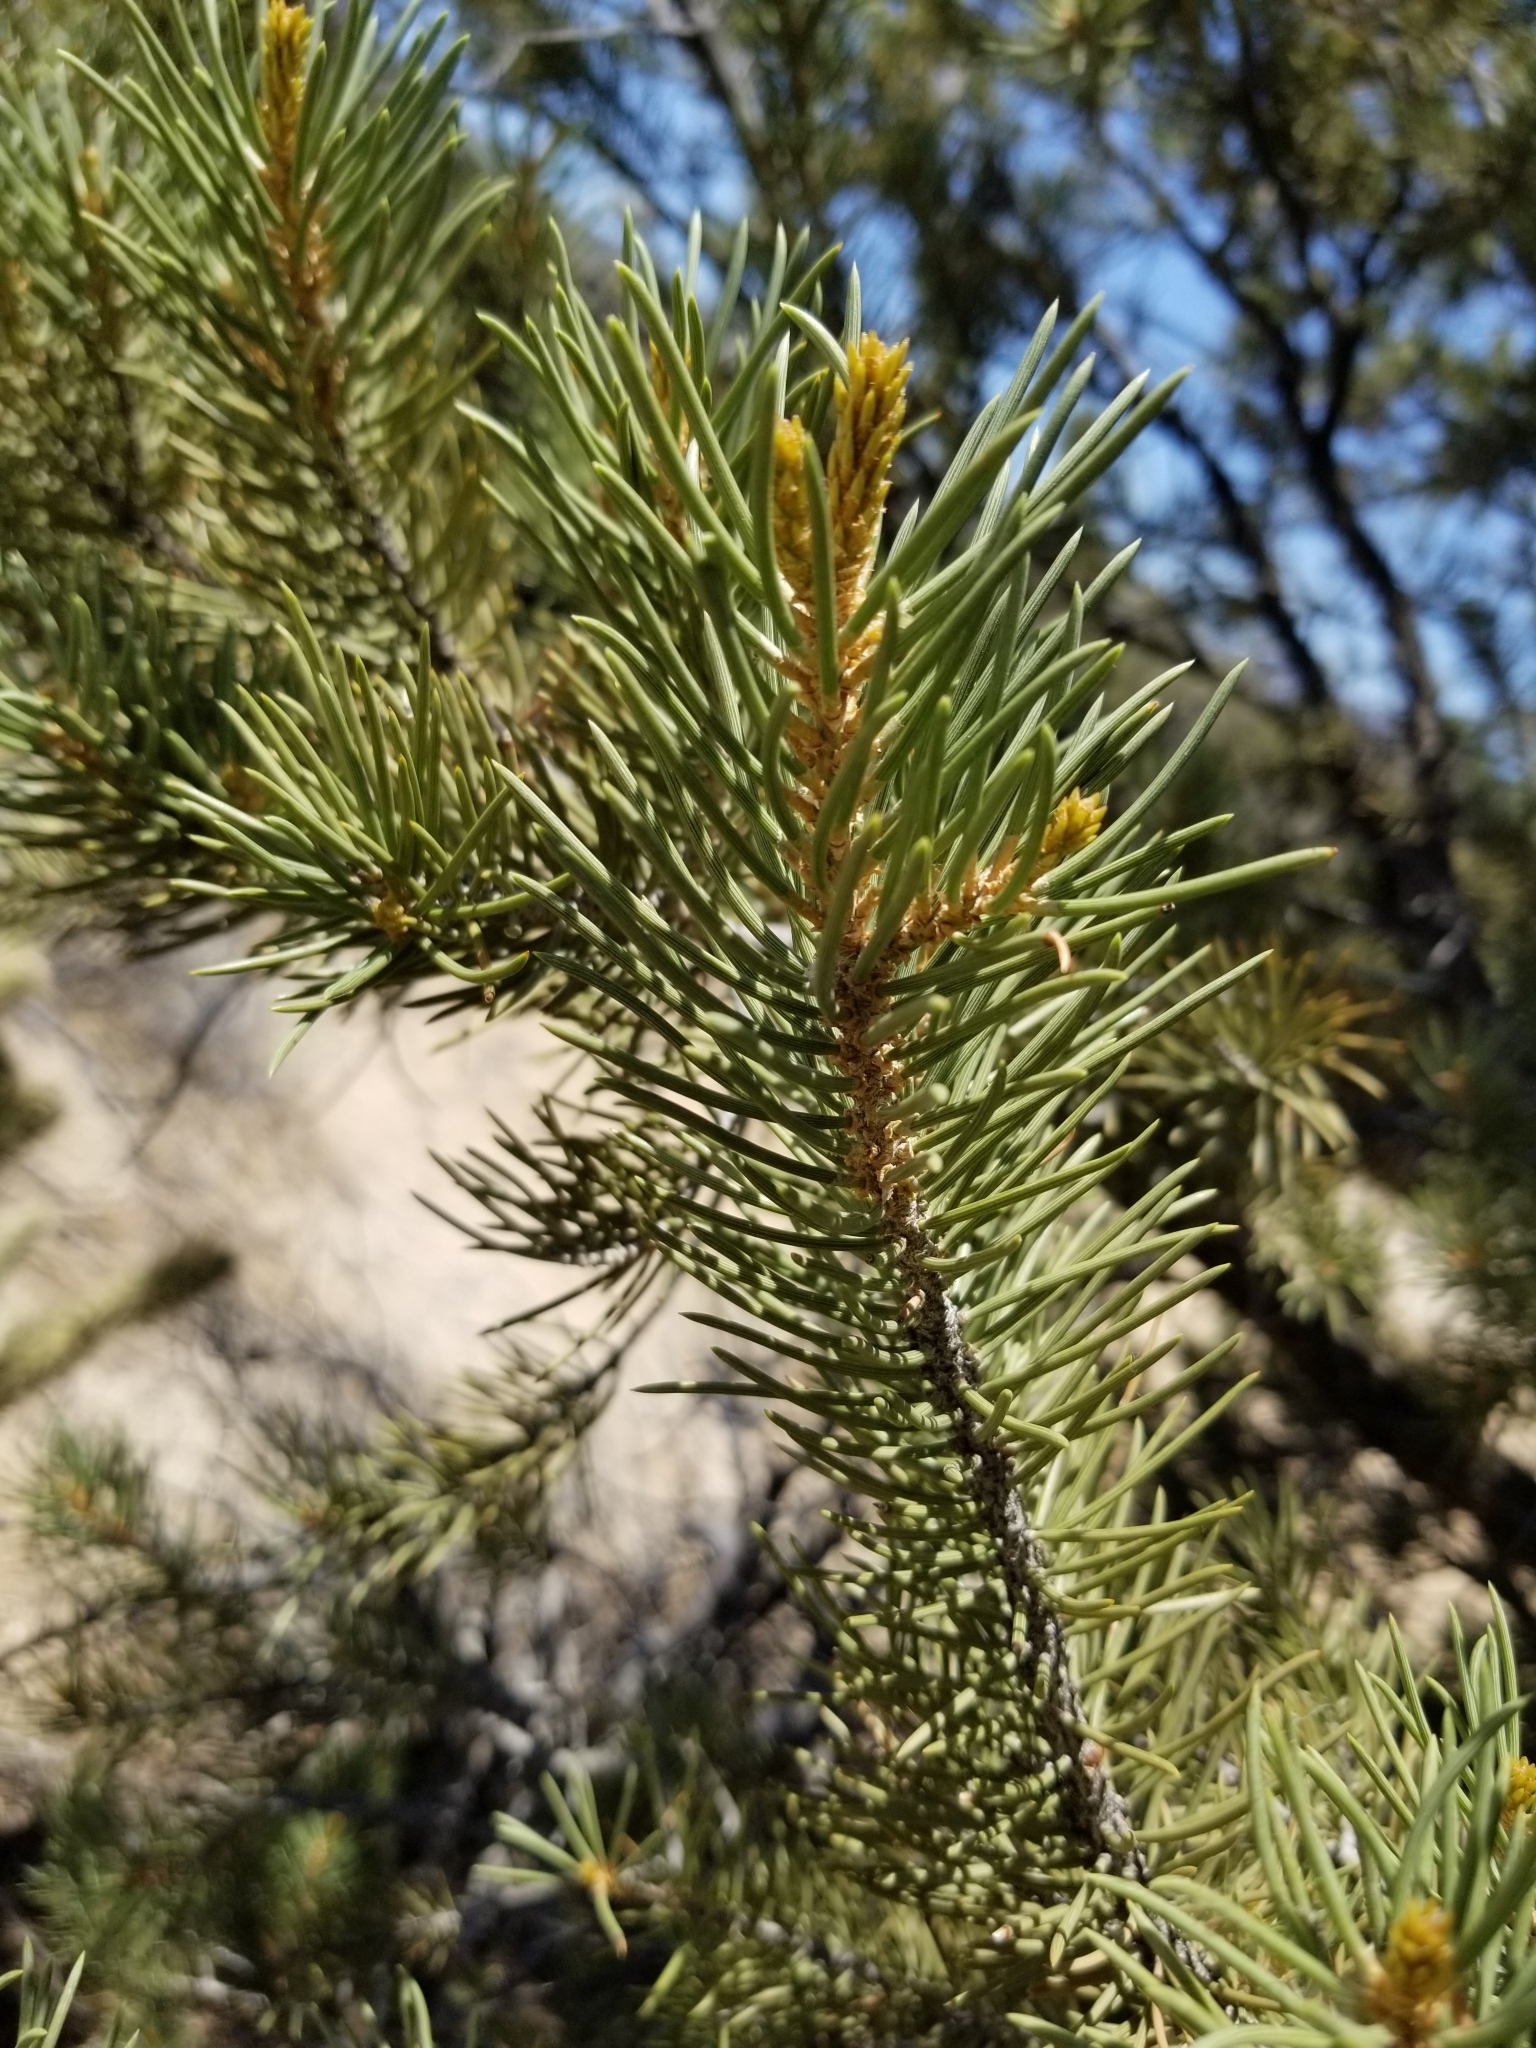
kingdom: Plantae
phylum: Tracheophyta
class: Pinopsida
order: Pinales
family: Pinaceae
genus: Pinus
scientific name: Pinus monophylla
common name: One-leaved nut pine
